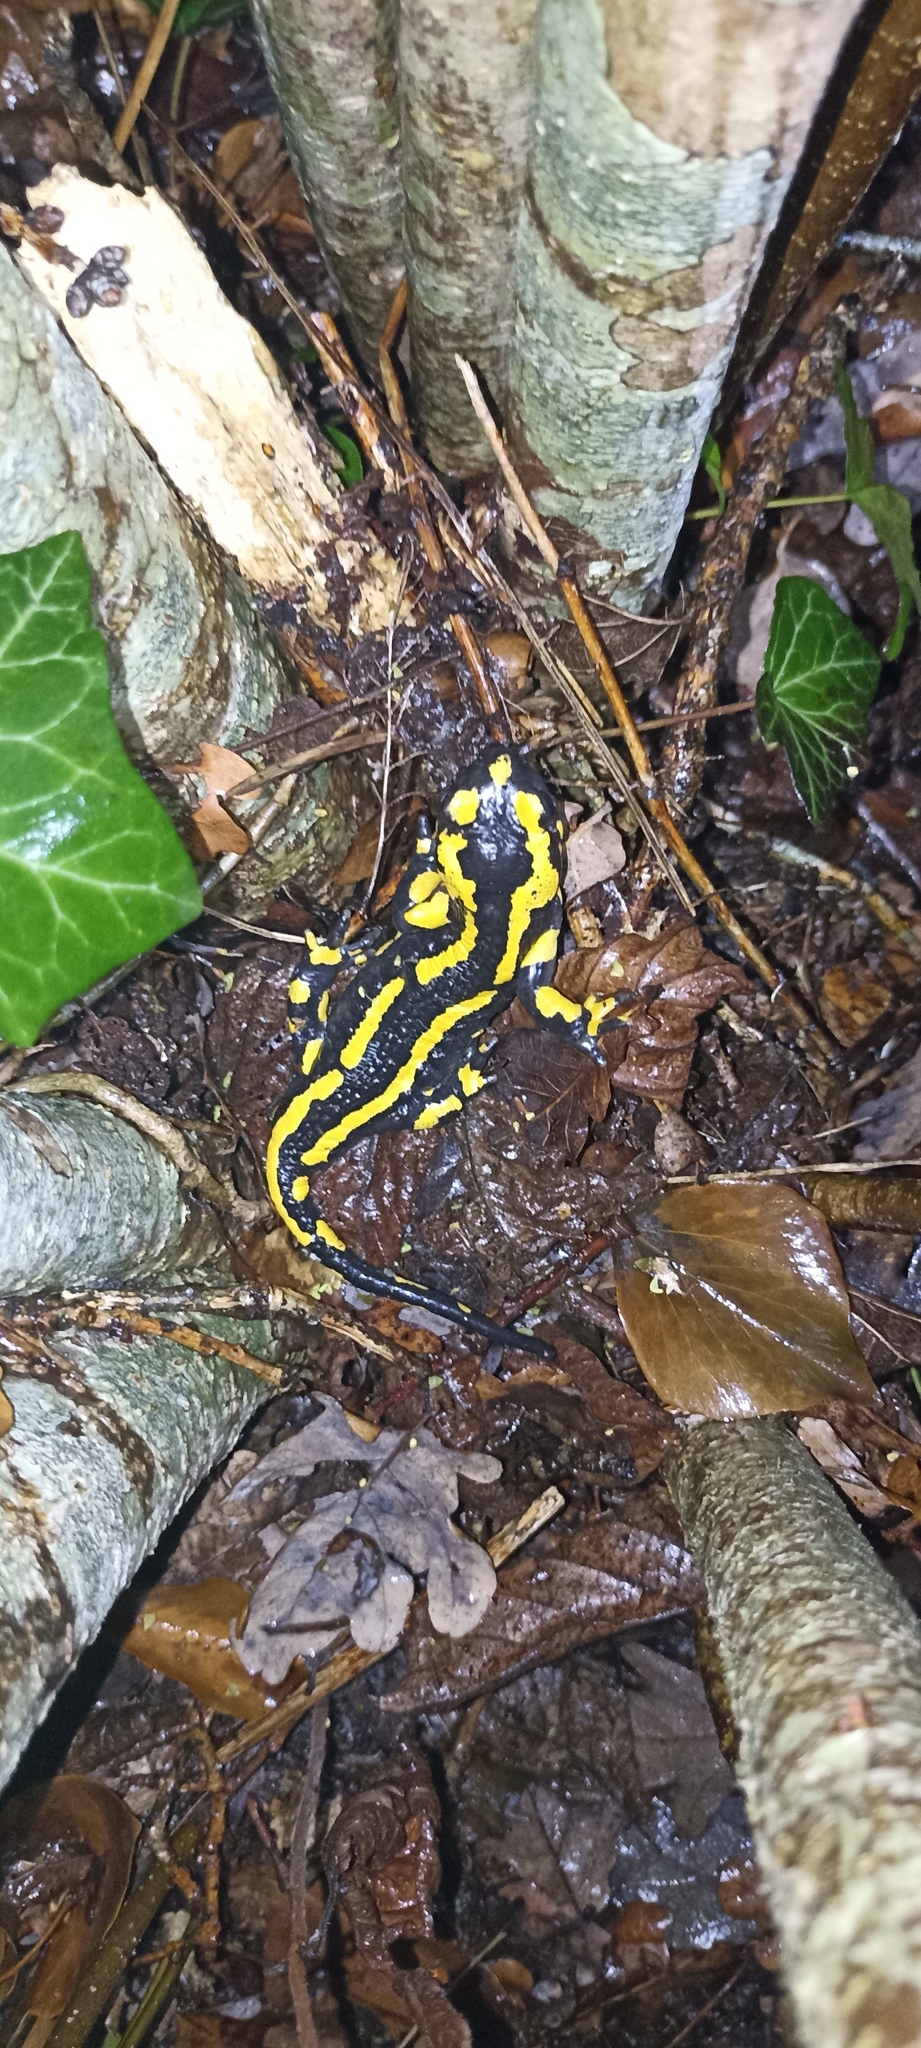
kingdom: Animalia
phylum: Chordata
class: Amphibia
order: Caudata
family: Salamandridae
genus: Salamandra
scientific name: Salamandra salamandra
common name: Fire salamander
